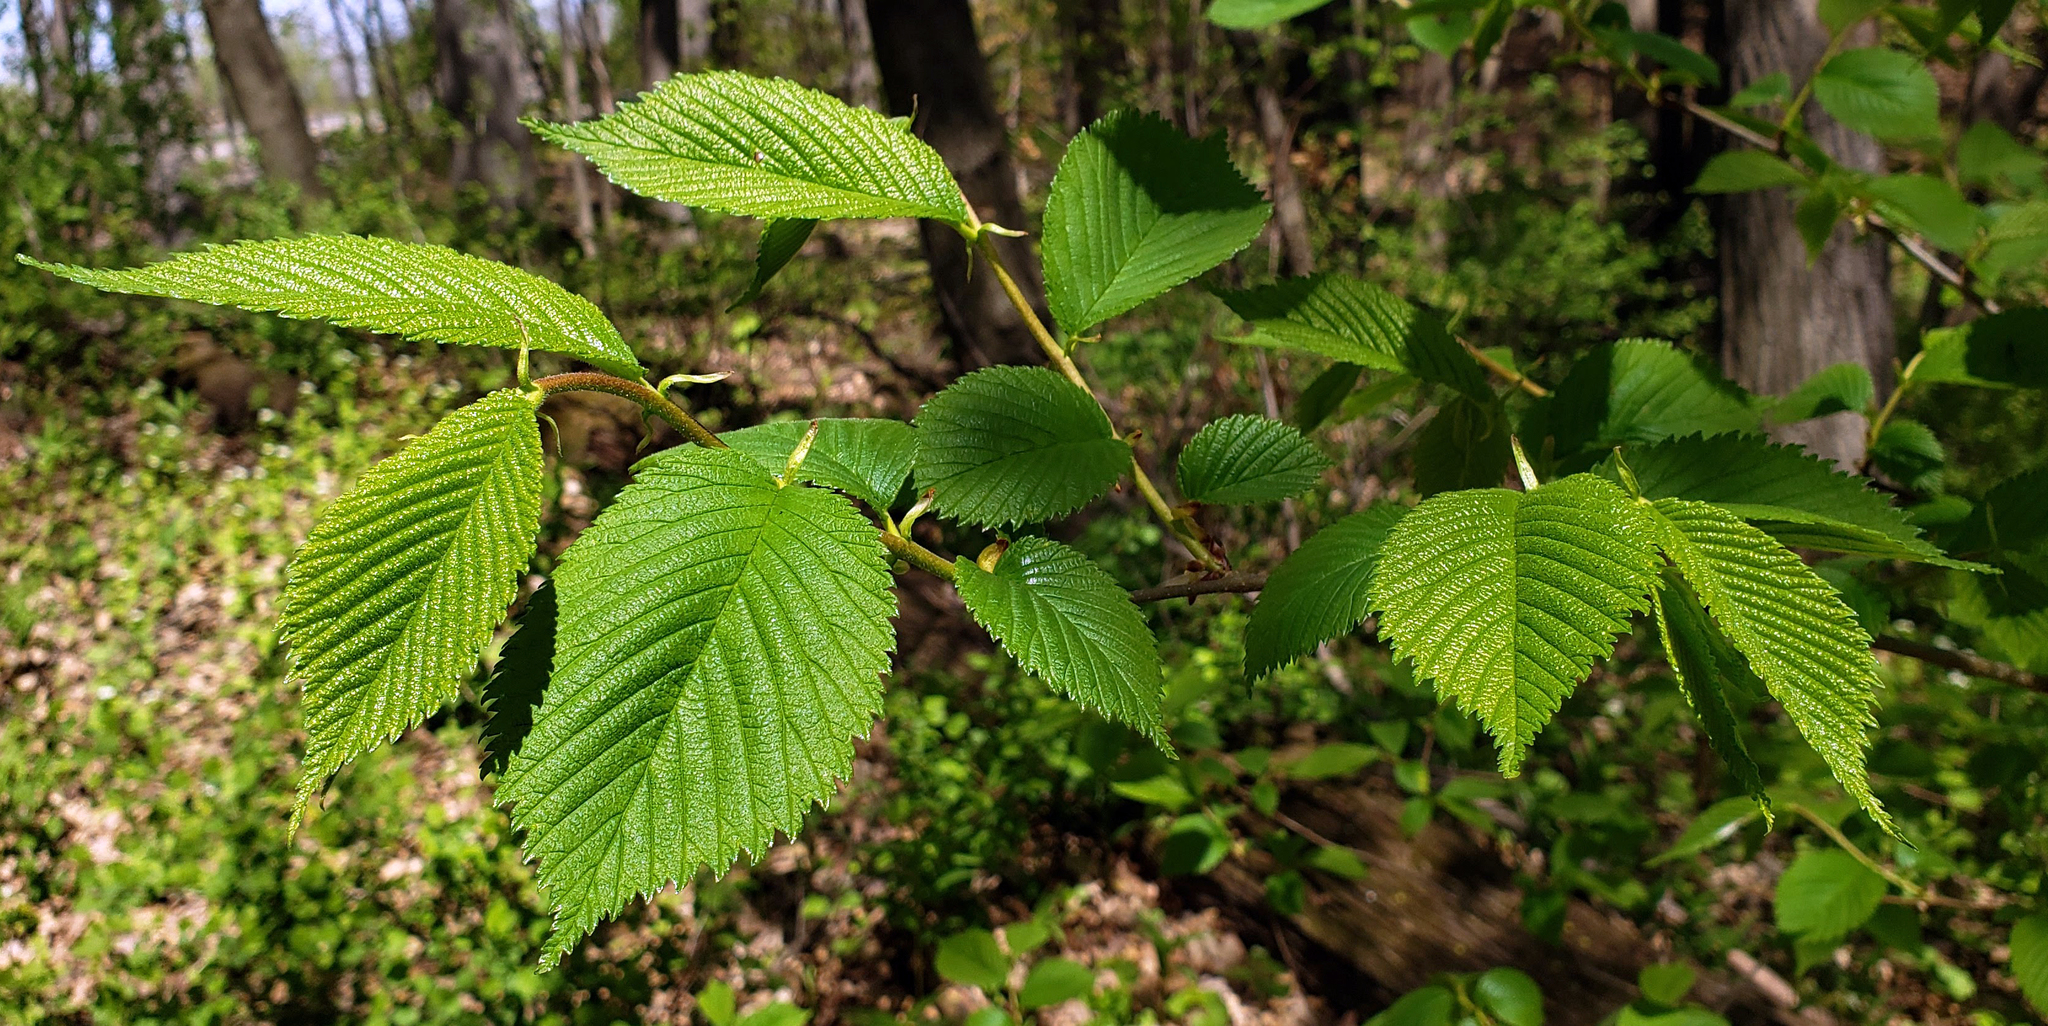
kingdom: Plantae
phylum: Tracheophyta
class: Magnoliopsida
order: Rosales
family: Ulmaceae
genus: Ulmus
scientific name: Ulmus rubra
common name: Slippery elm
